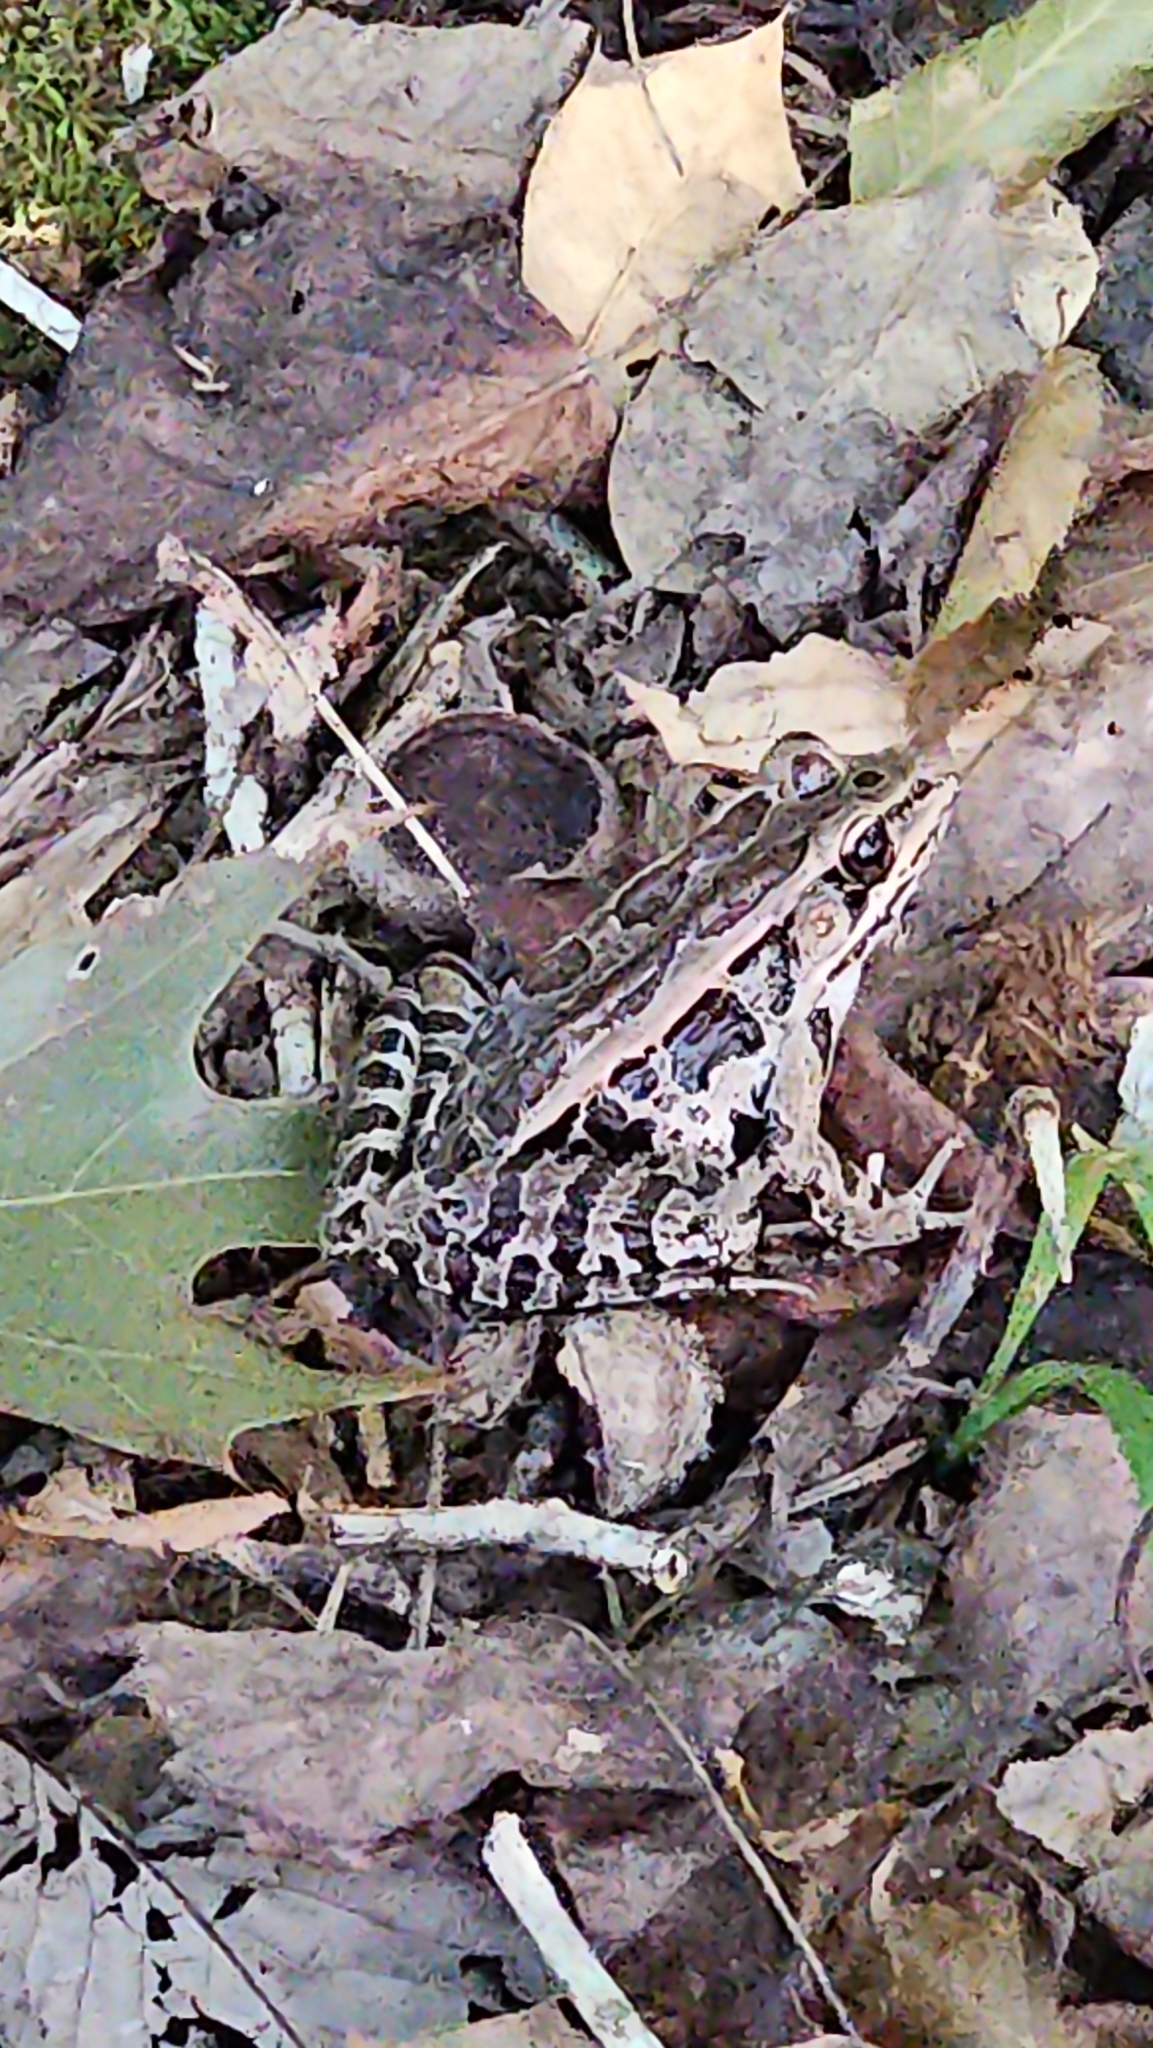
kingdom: Animalia
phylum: Chordata
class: Amphibia
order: Anura
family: Ranidae
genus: Lithobates
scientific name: Lithobates palustris
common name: Pickerel frog
